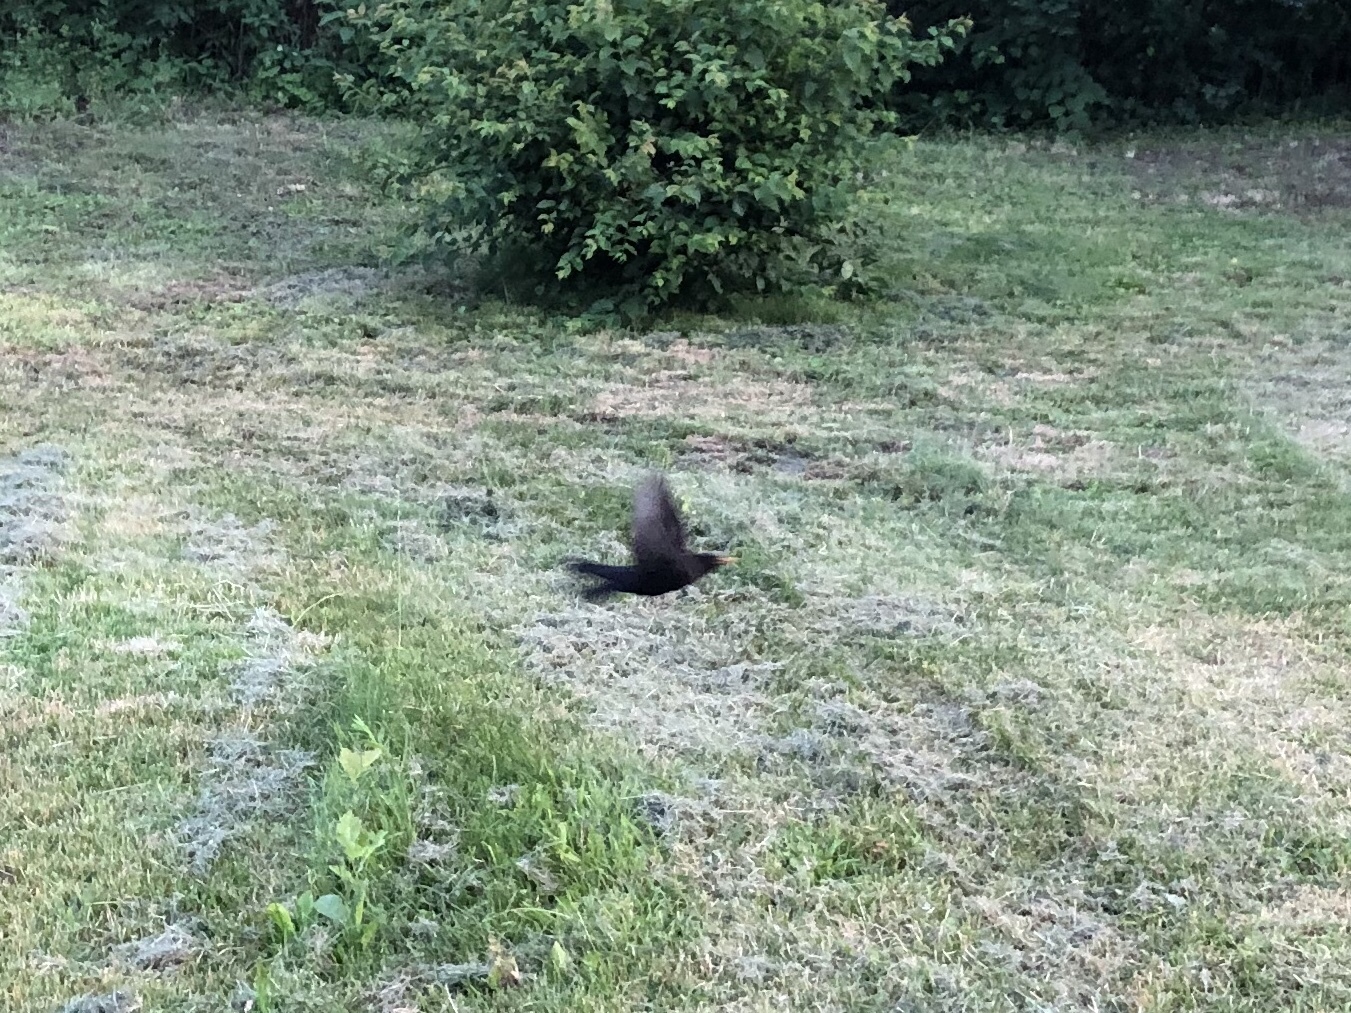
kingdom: Animalia
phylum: Chordata
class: Aves
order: Passeriformes
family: Turdidae
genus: Turdus
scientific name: Turdus merula
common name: Common blackbird
